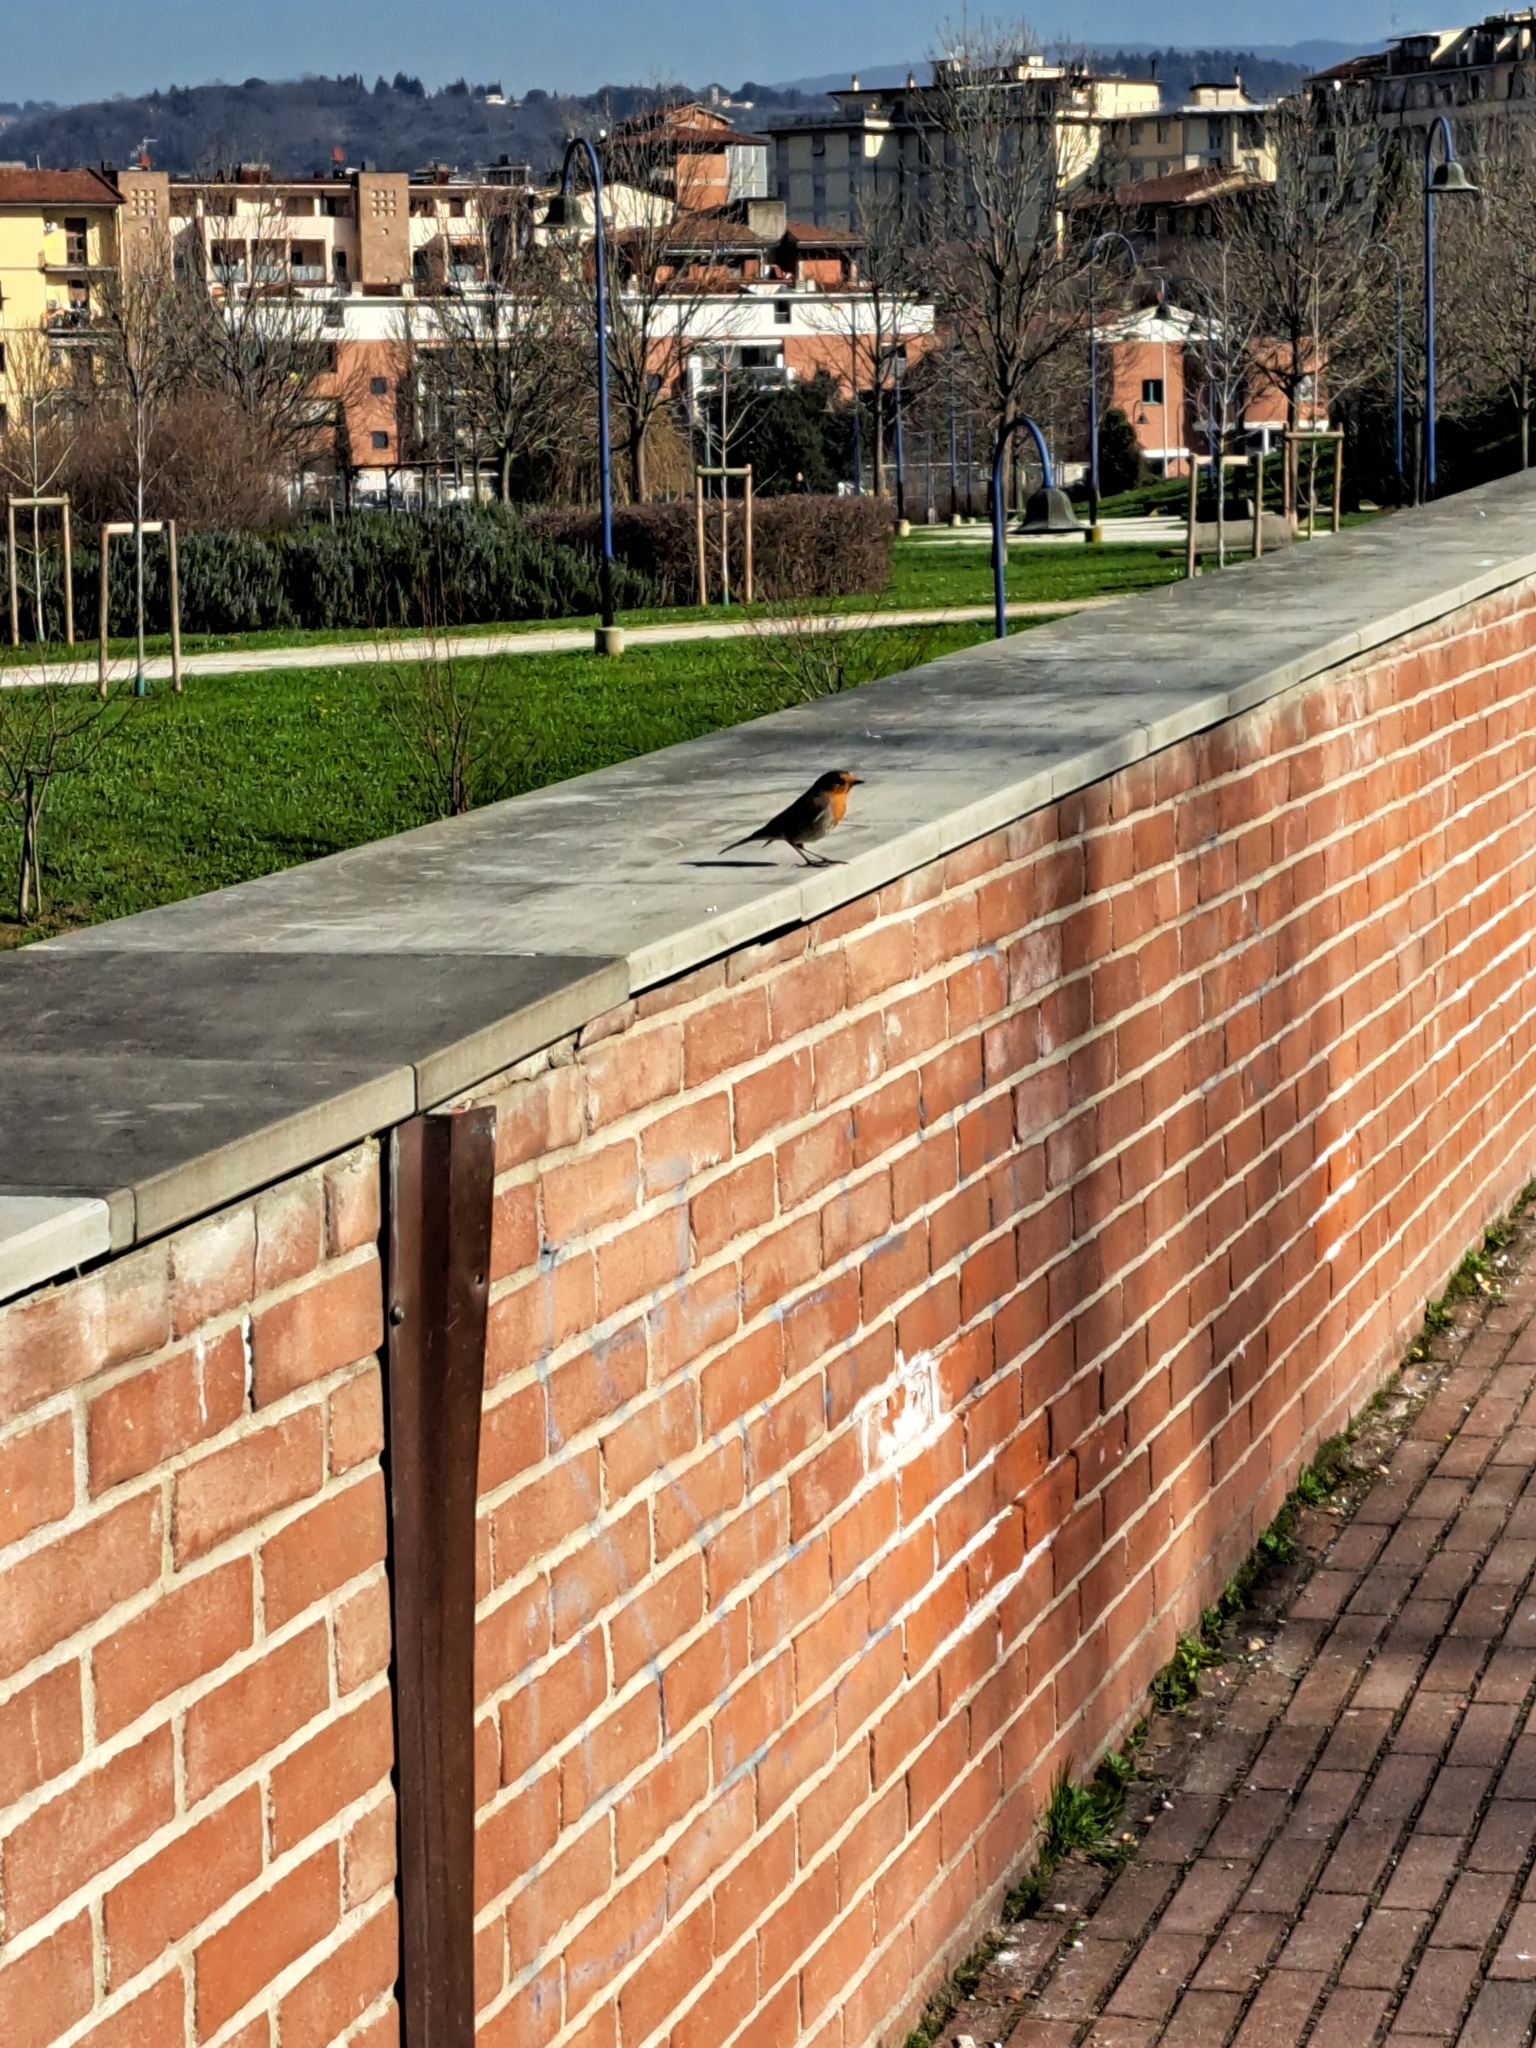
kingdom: Animalia
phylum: Chordata
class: Aves
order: Passeriformes
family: Muscicapidae
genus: Erithacus
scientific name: Erithacus rubecula
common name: European robin
